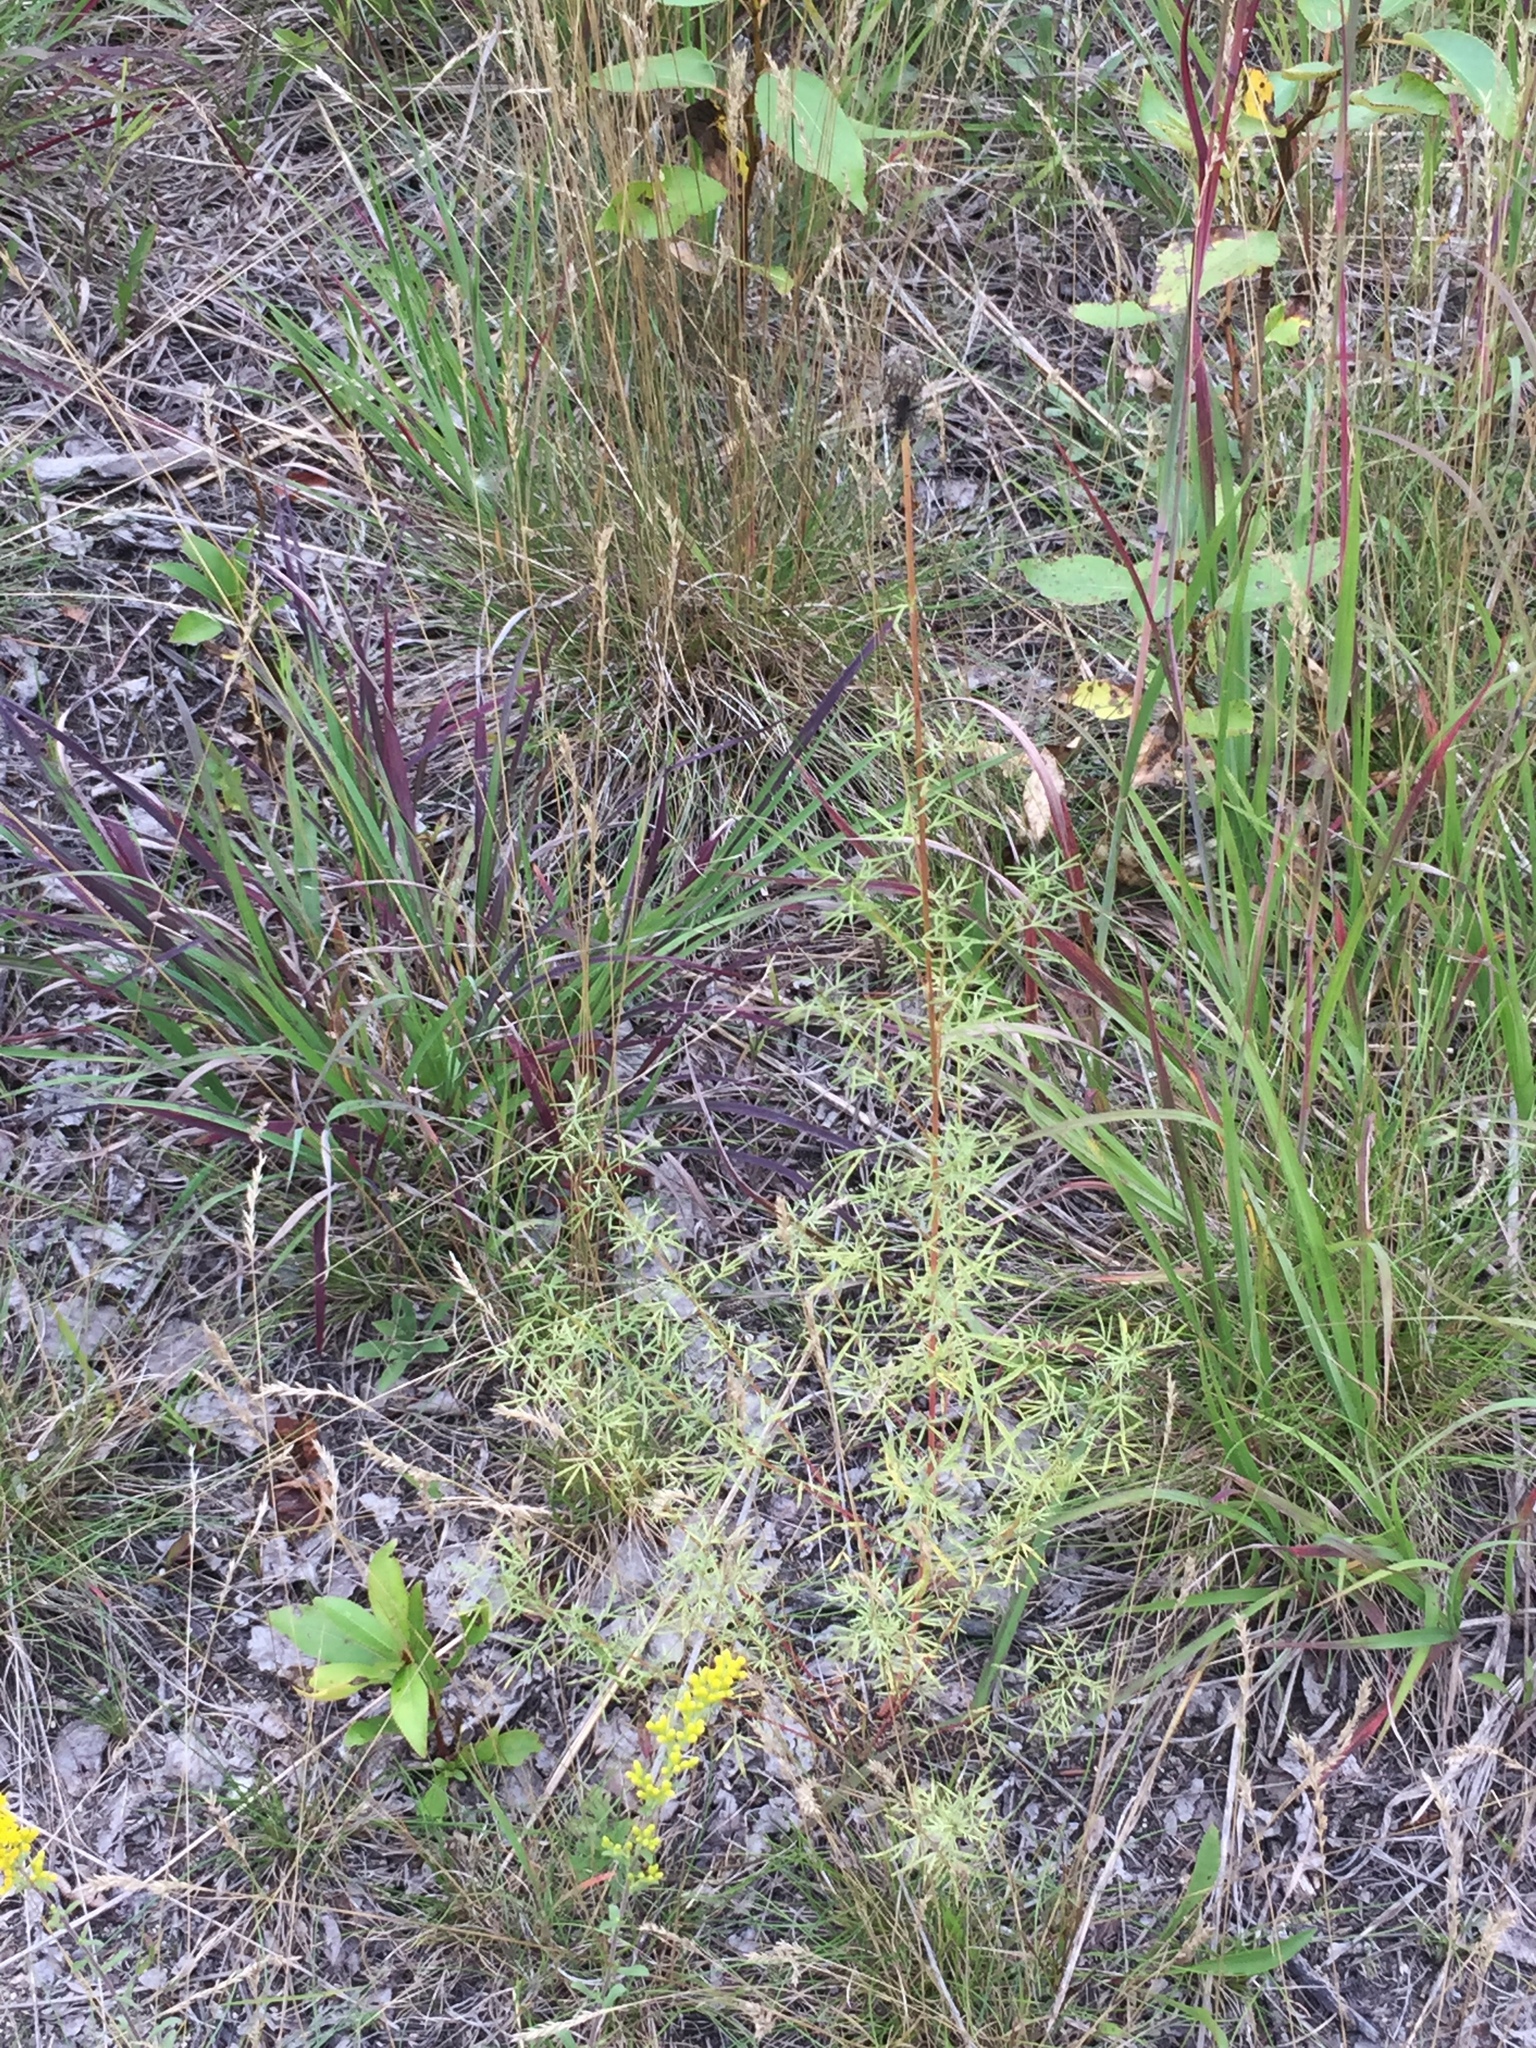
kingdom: Plantae
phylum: Tracheophyta
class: Magnoliopsida
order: Fabales
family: Fabaceae
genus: Dalea
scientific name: Dalea purpurea
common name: Purple prairie-clover
